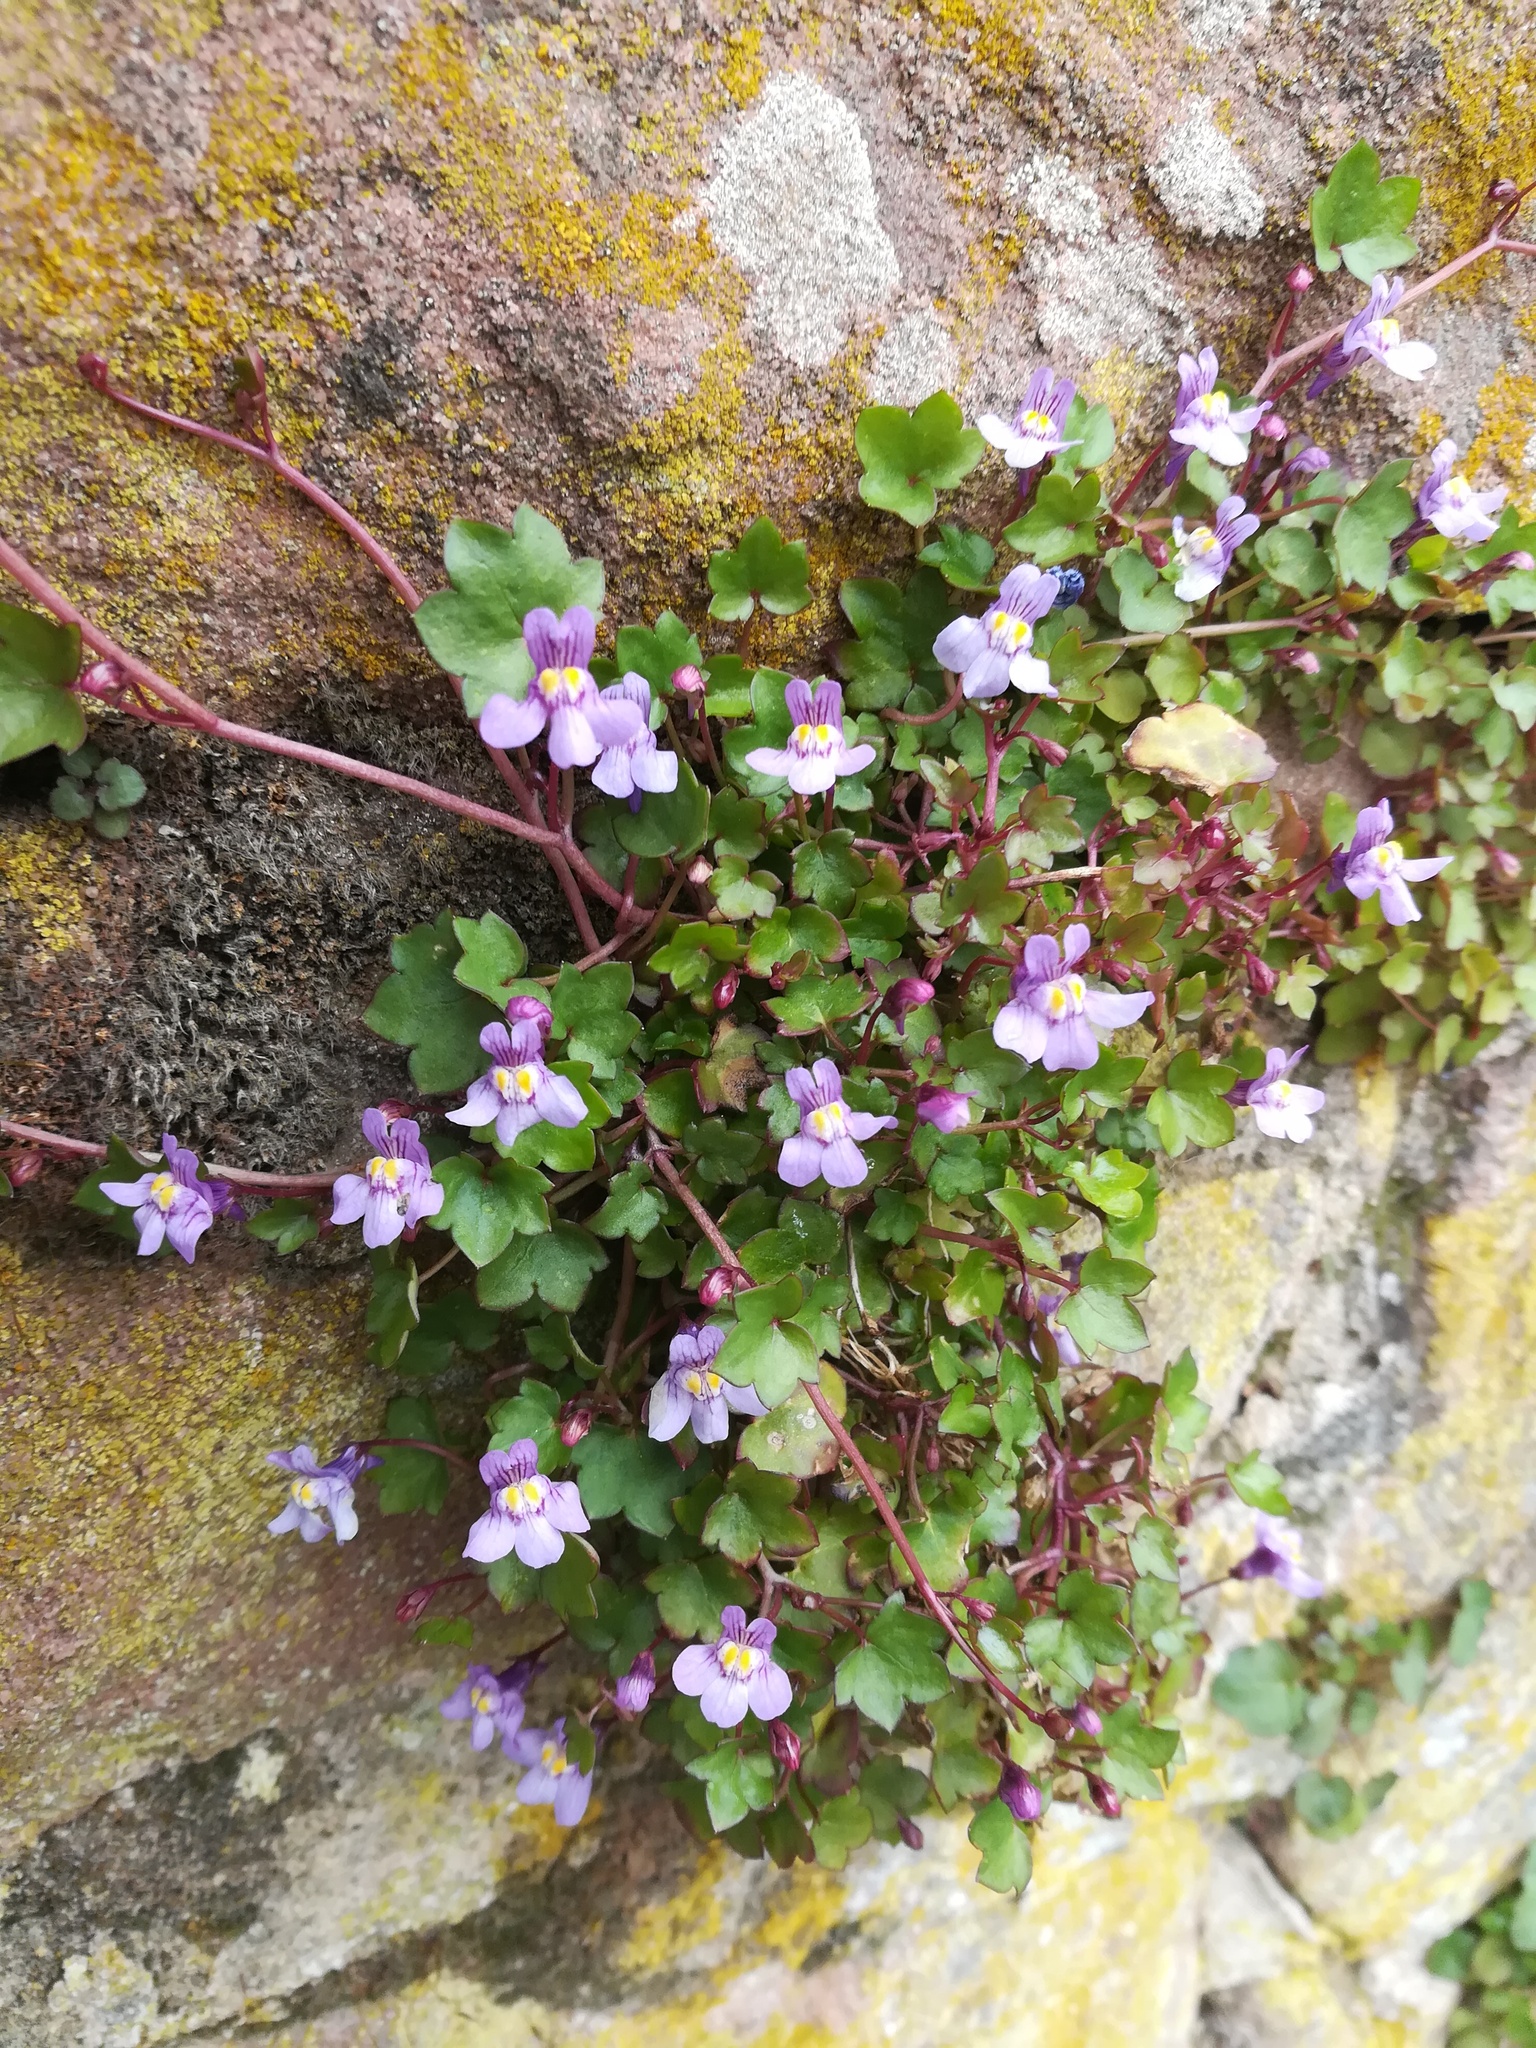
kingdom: Plantae
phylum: Tracheophyta
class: Magnoliopsida
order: Lamiales
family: Plantaginaceae
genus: Cymbalaria
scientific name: Cymbalaria muralis
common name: Ivy-leaved toadflax
